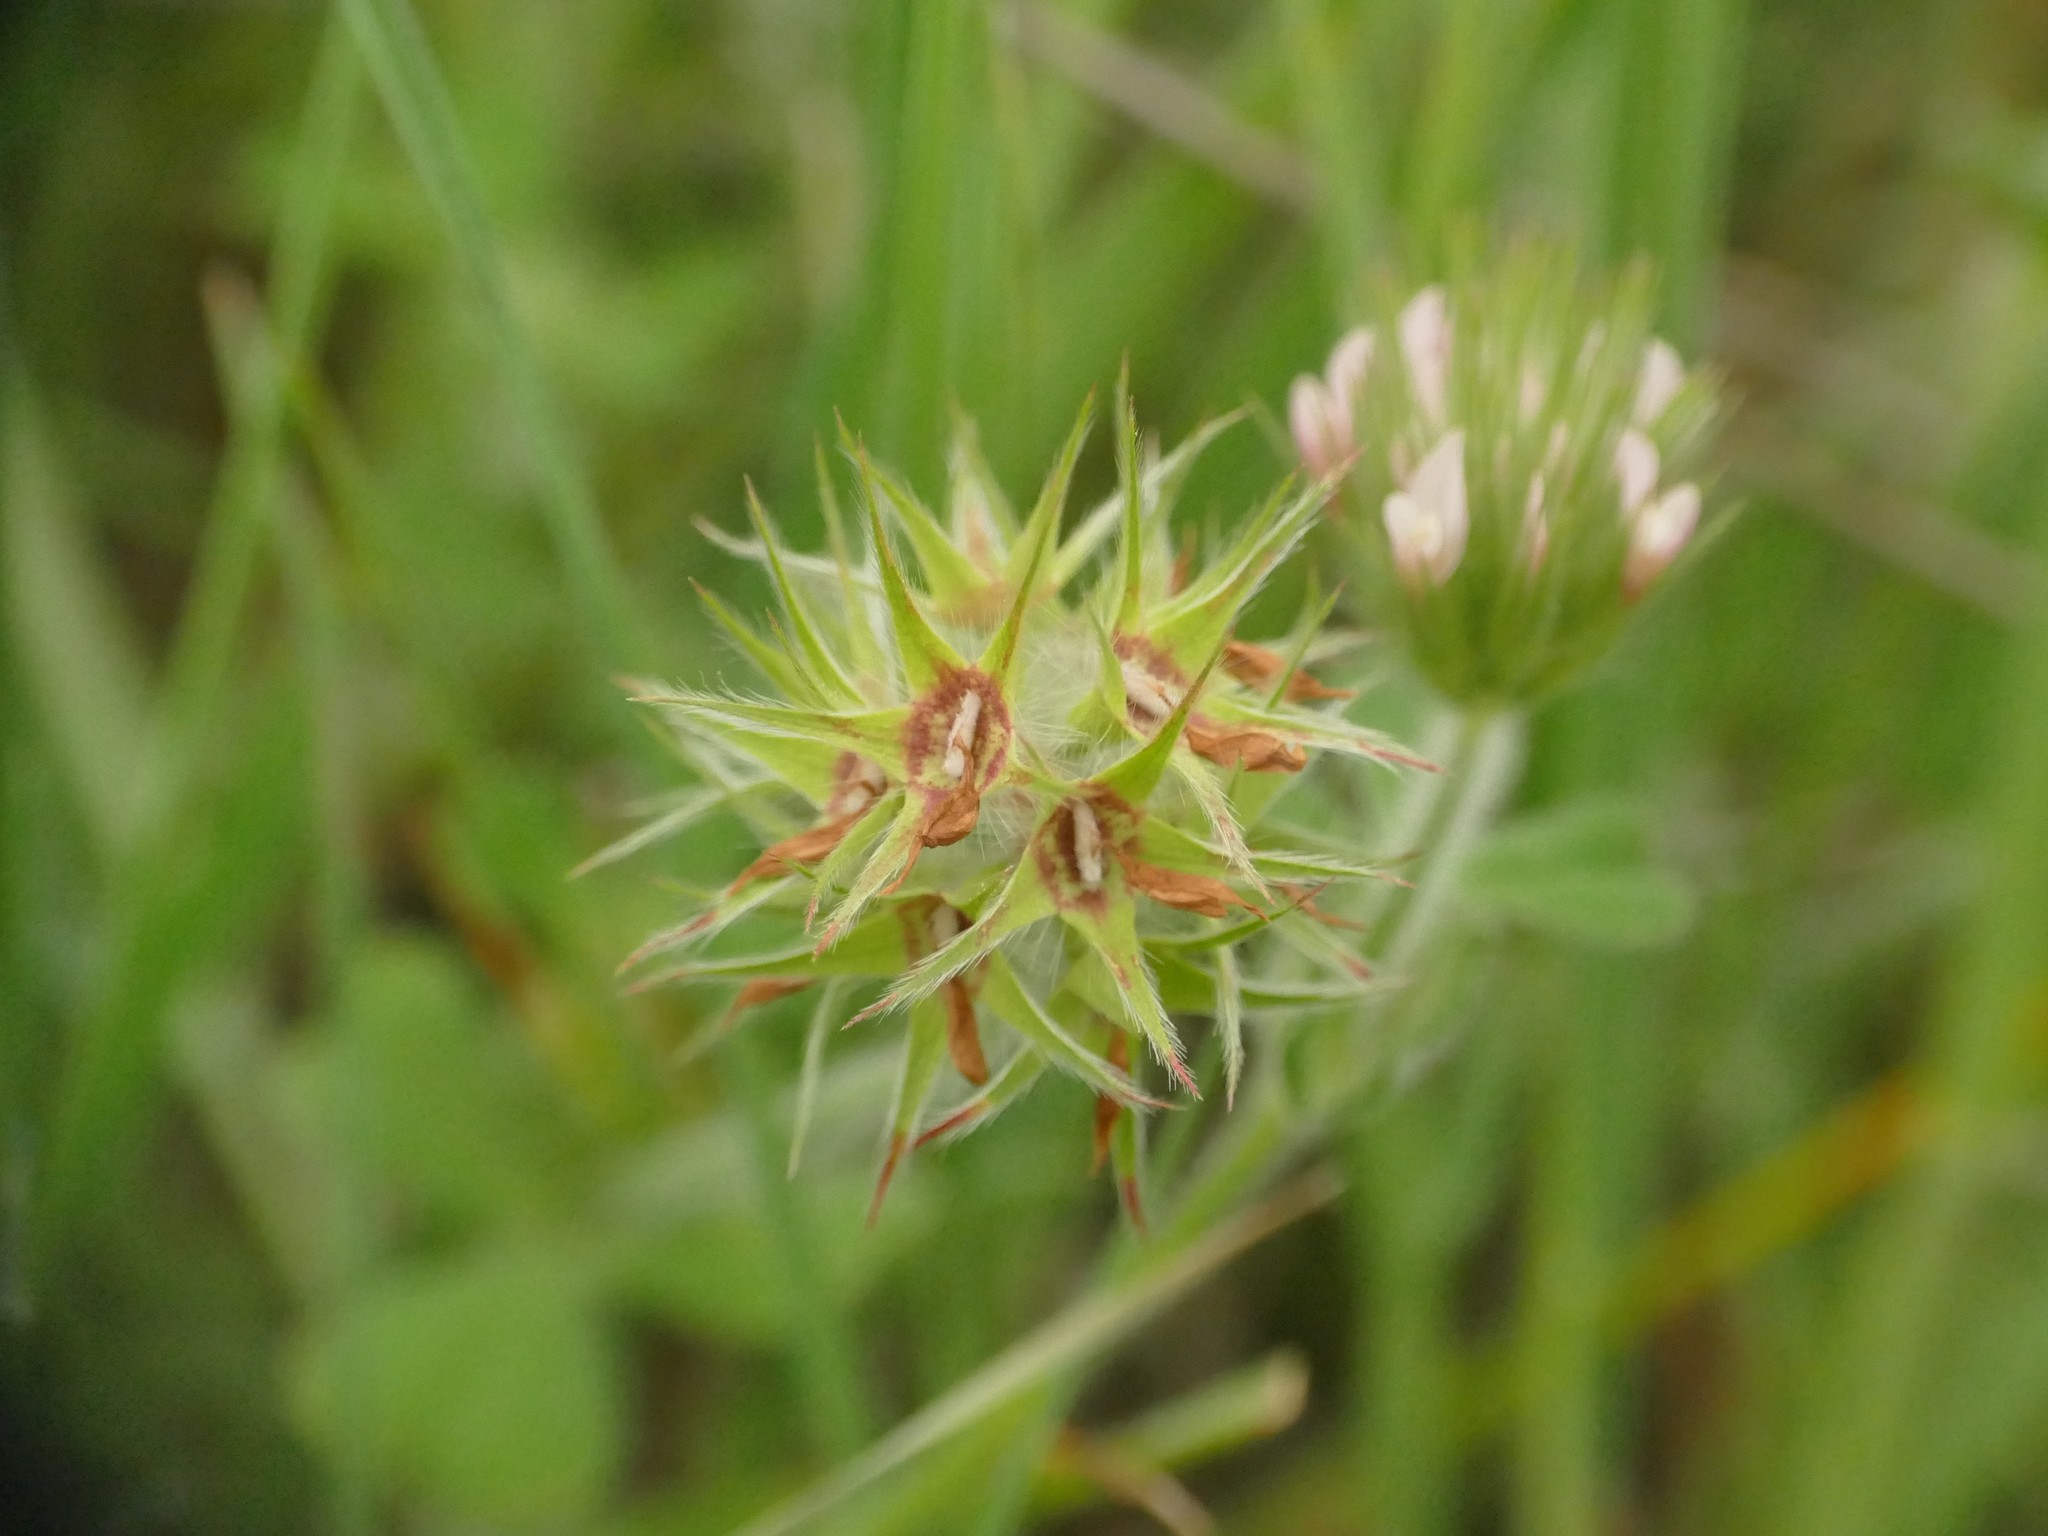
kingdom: Plantae
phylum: Tracheophyta
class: Magnoliopsida
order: Fabales
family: Fabaceae
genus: Trifolium
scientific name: Trifolium stellatum
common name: Starry clover
